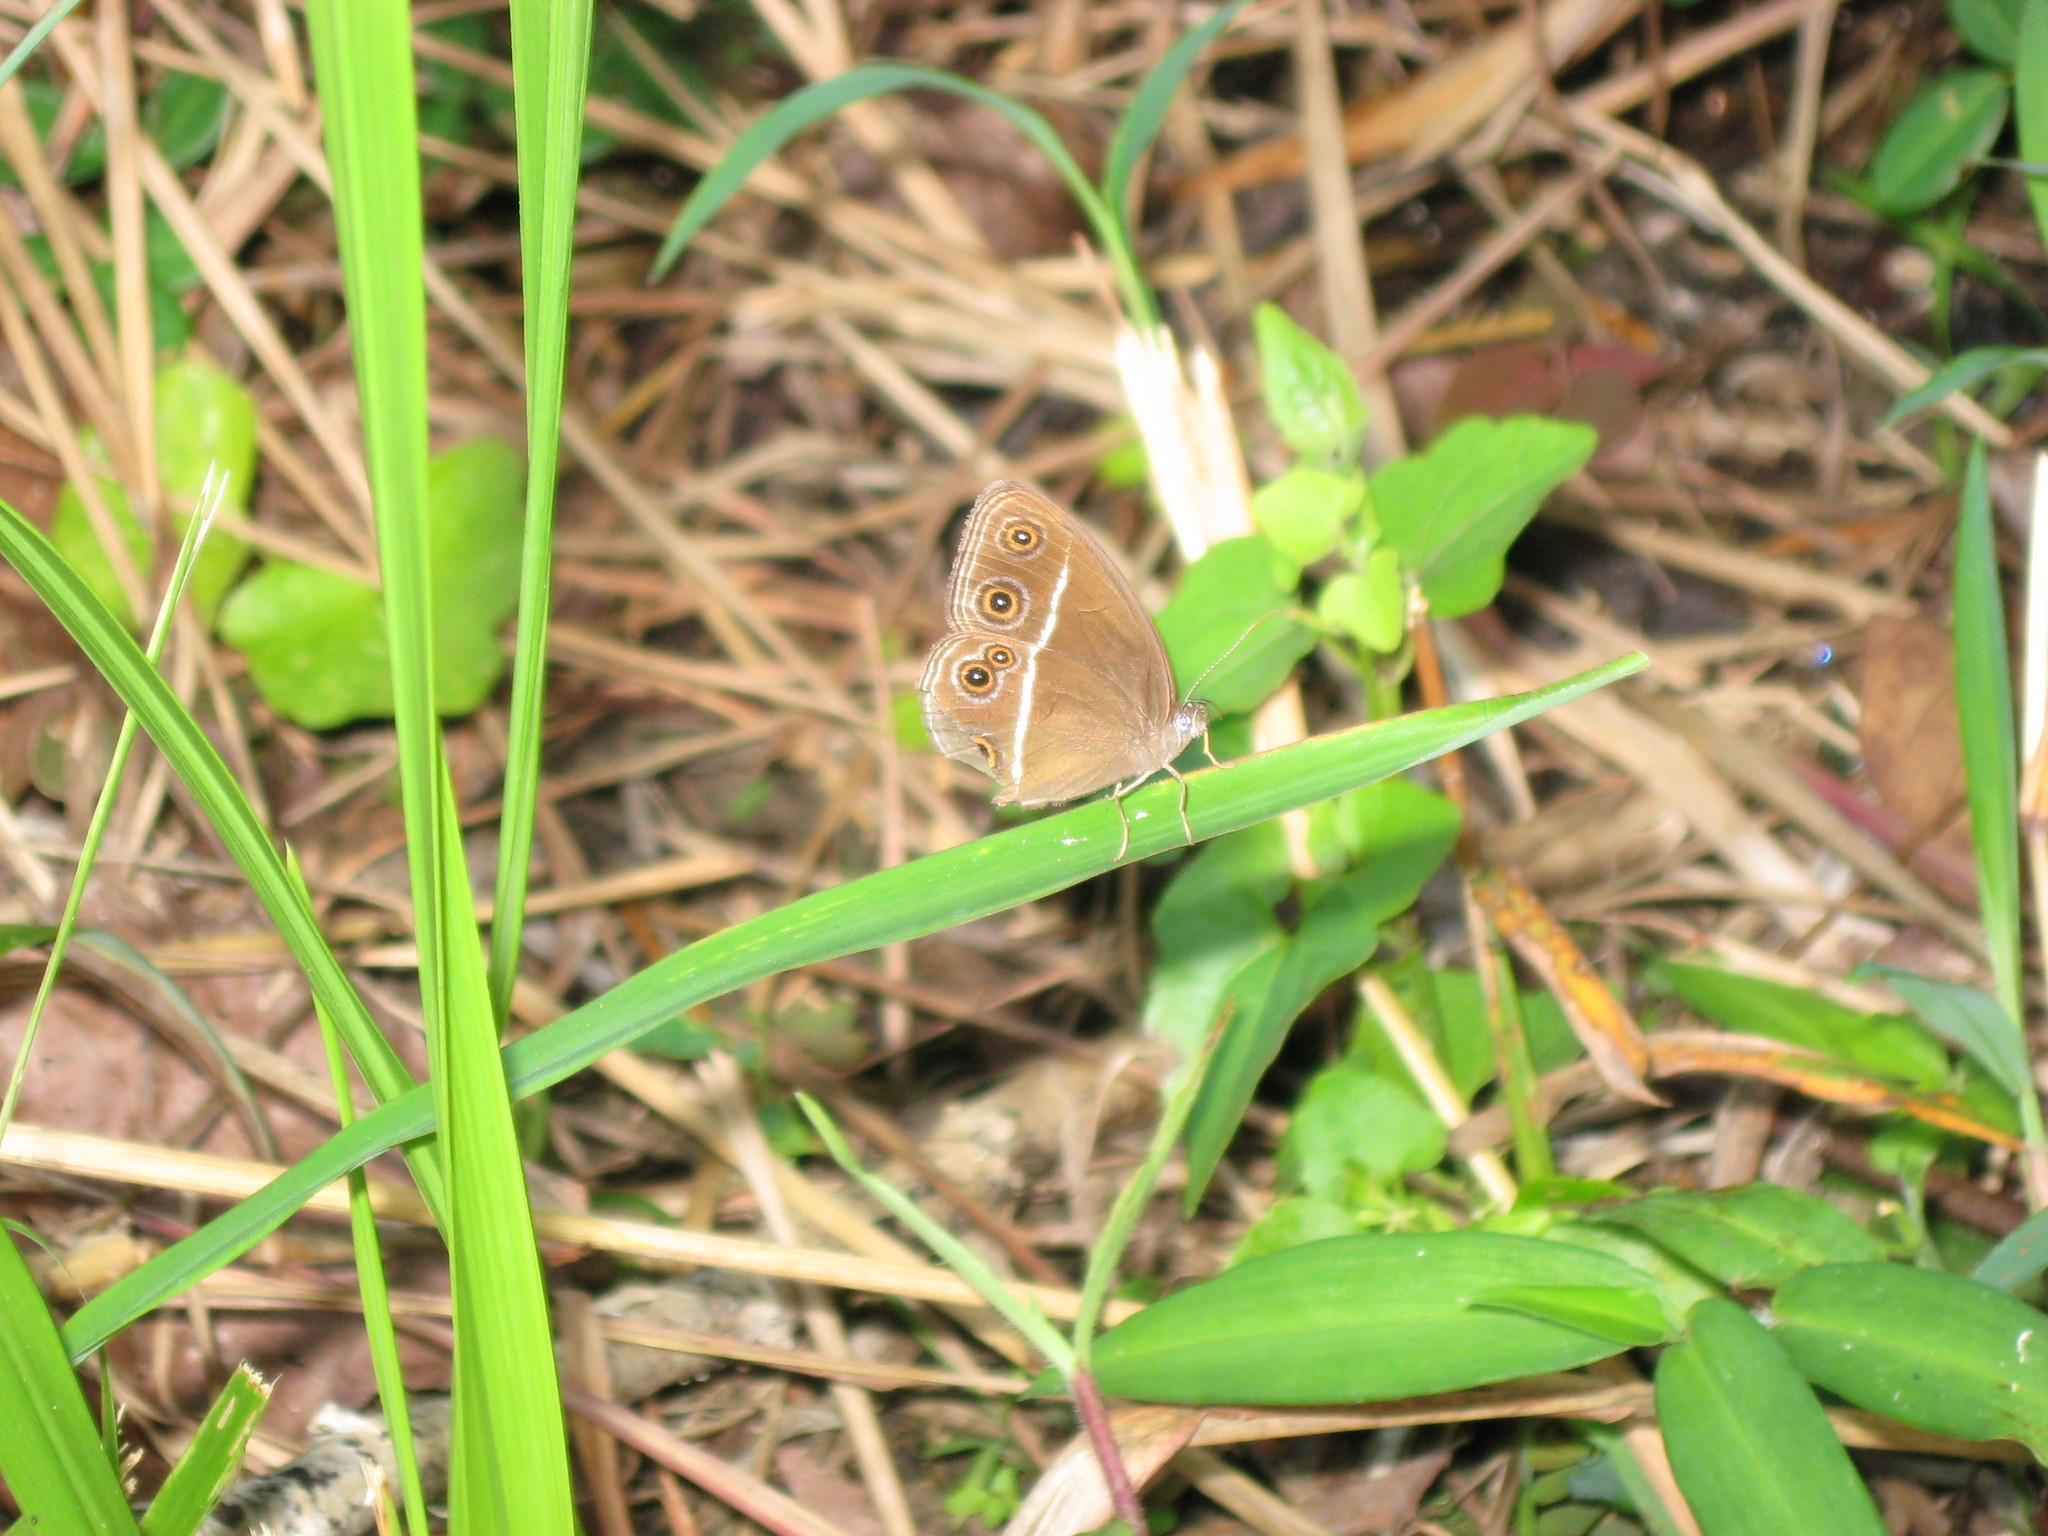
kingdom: Animalia
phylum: Arthropoda
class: Insecta
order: Lepidoptera
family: Nymphalidae
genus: Orsotriaena
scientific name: Orsotriaena medus
